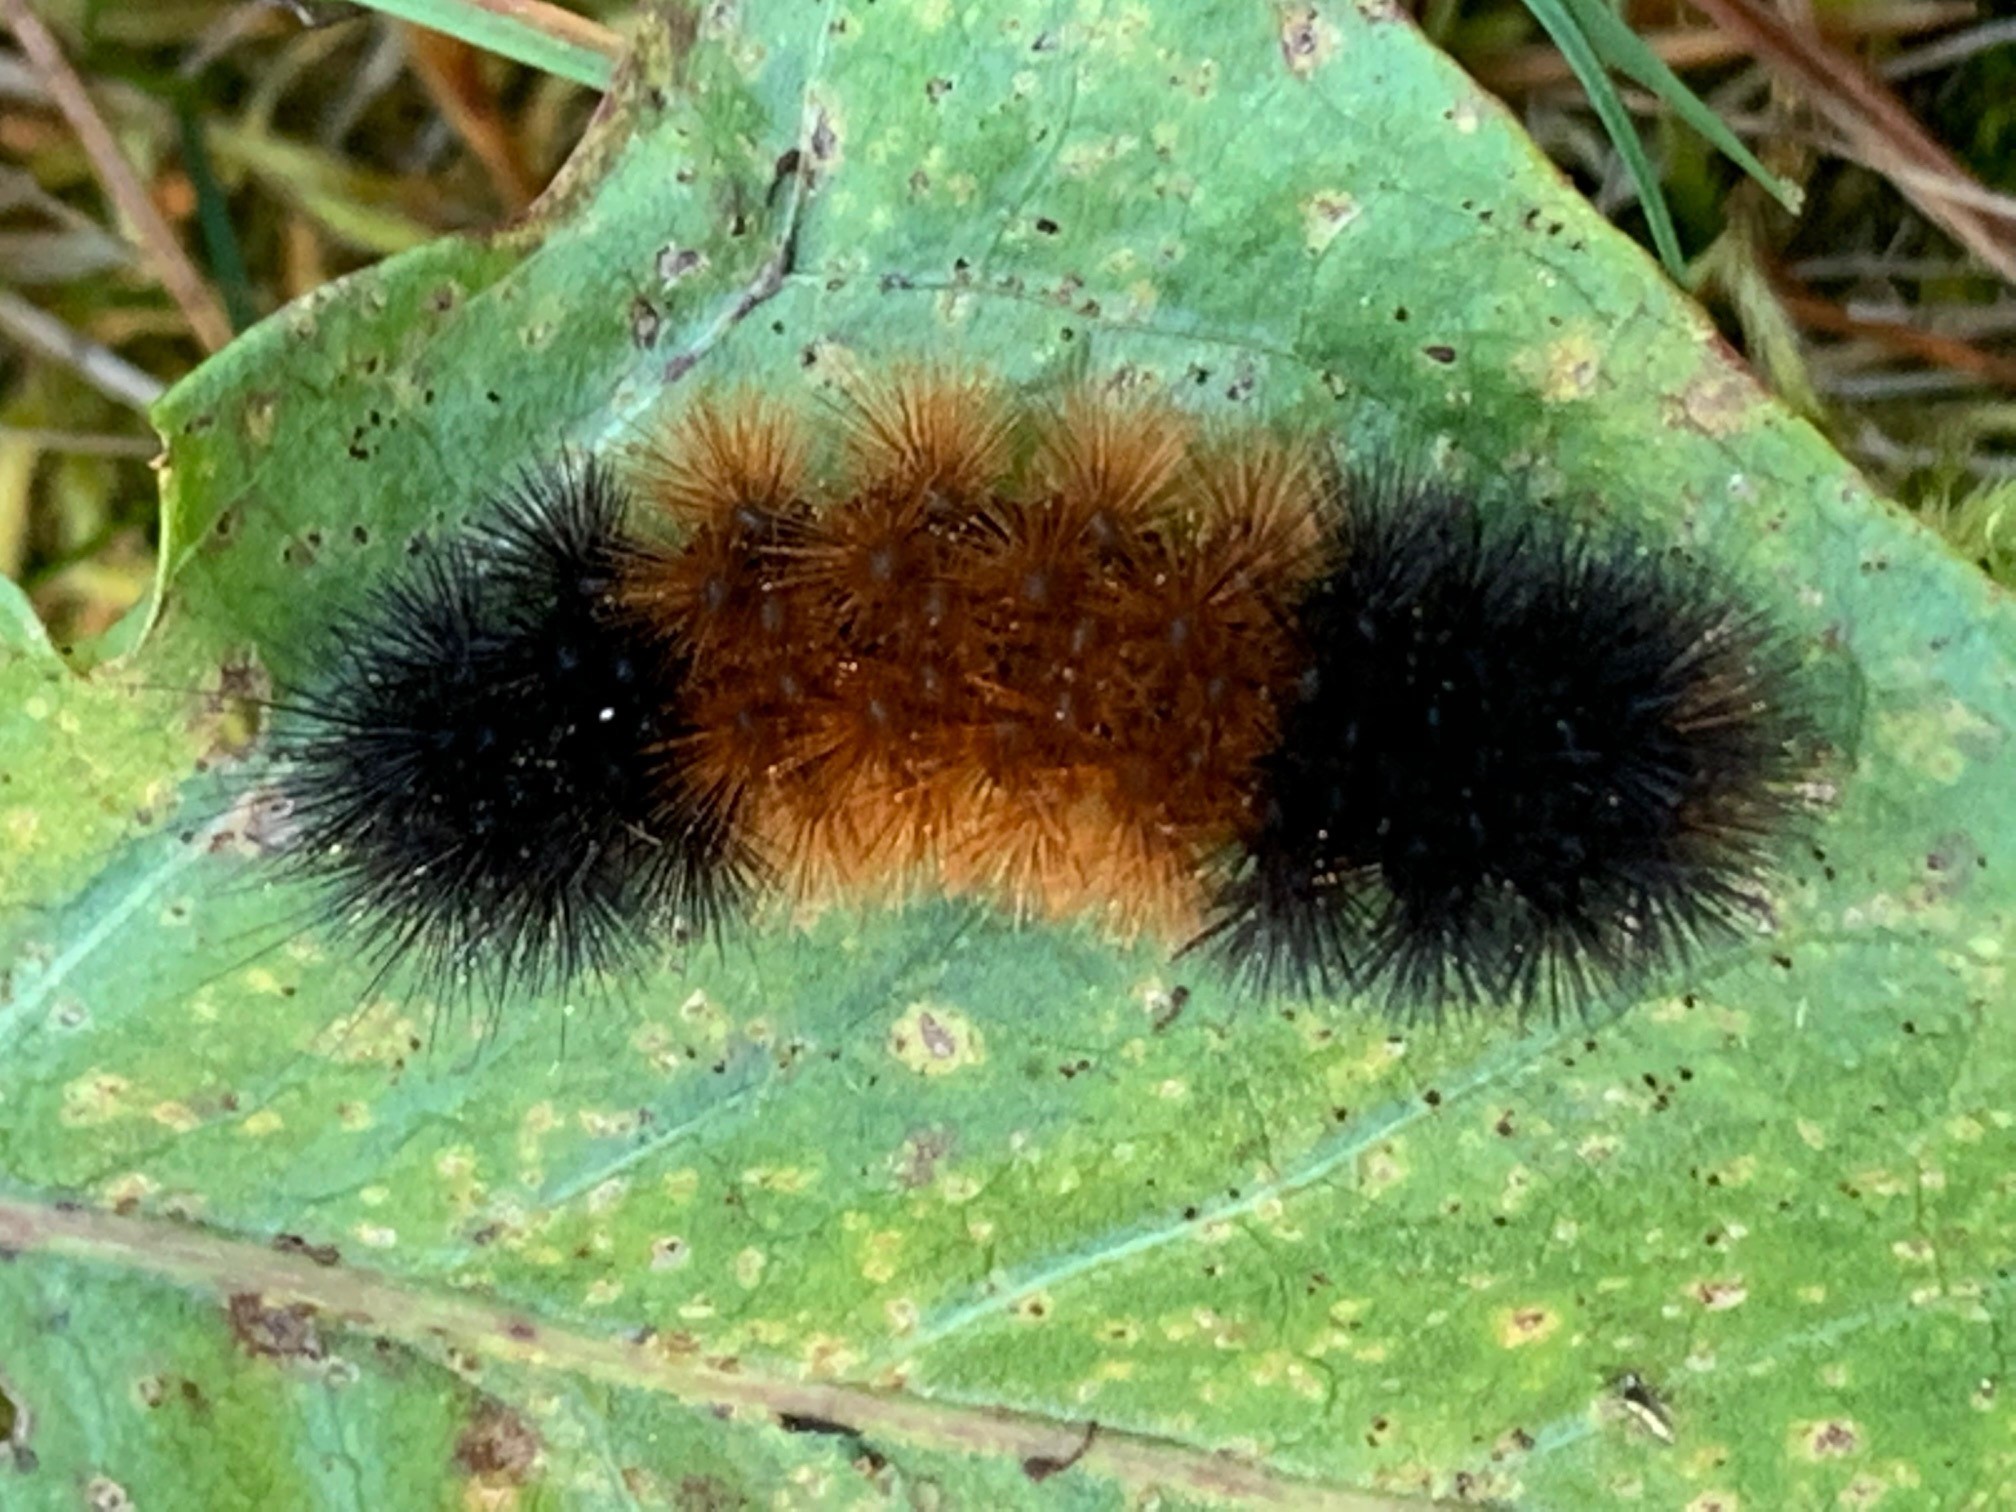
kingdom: Animalia
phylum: Arthropoda
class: Insecta
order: Lepidoptera
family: Erebidae
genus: Pyrrharctia
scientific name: Pyrrharctia isabella
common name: Isabella tiger moth
